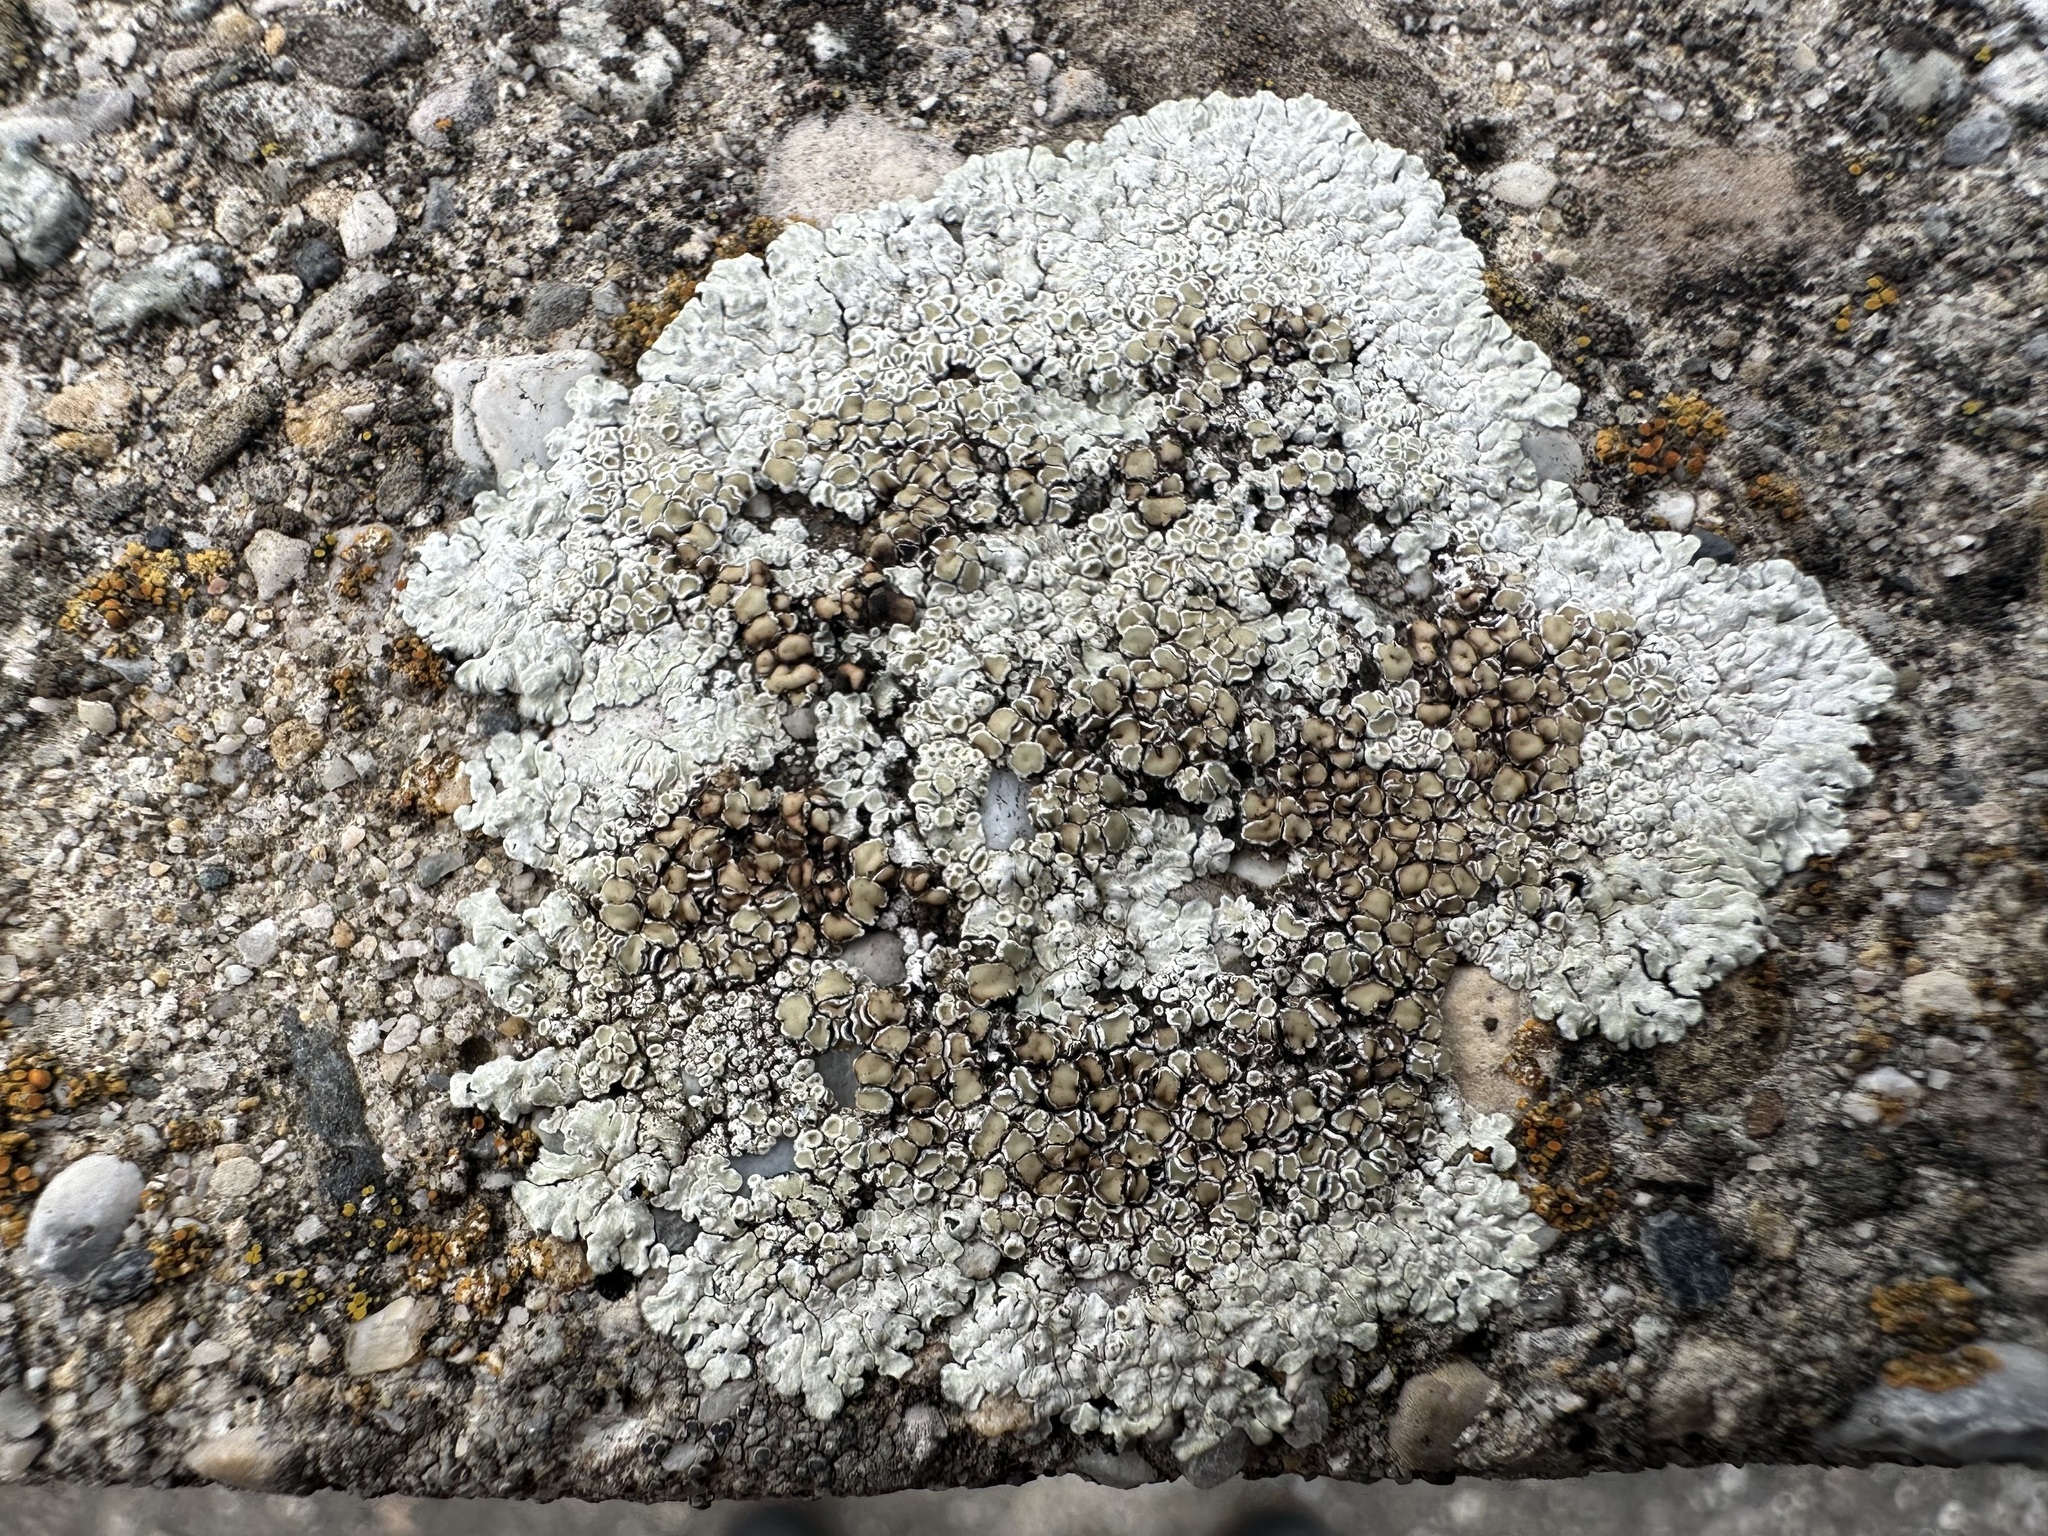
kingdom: Fungi
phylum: Ascomycota
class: Lecanoromycetes
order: Lecanorales
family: Lecanoraceae
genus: Protoparmeliopsis
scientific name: Protoparmeliopsis muralis
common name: Stonewall rim lichen
